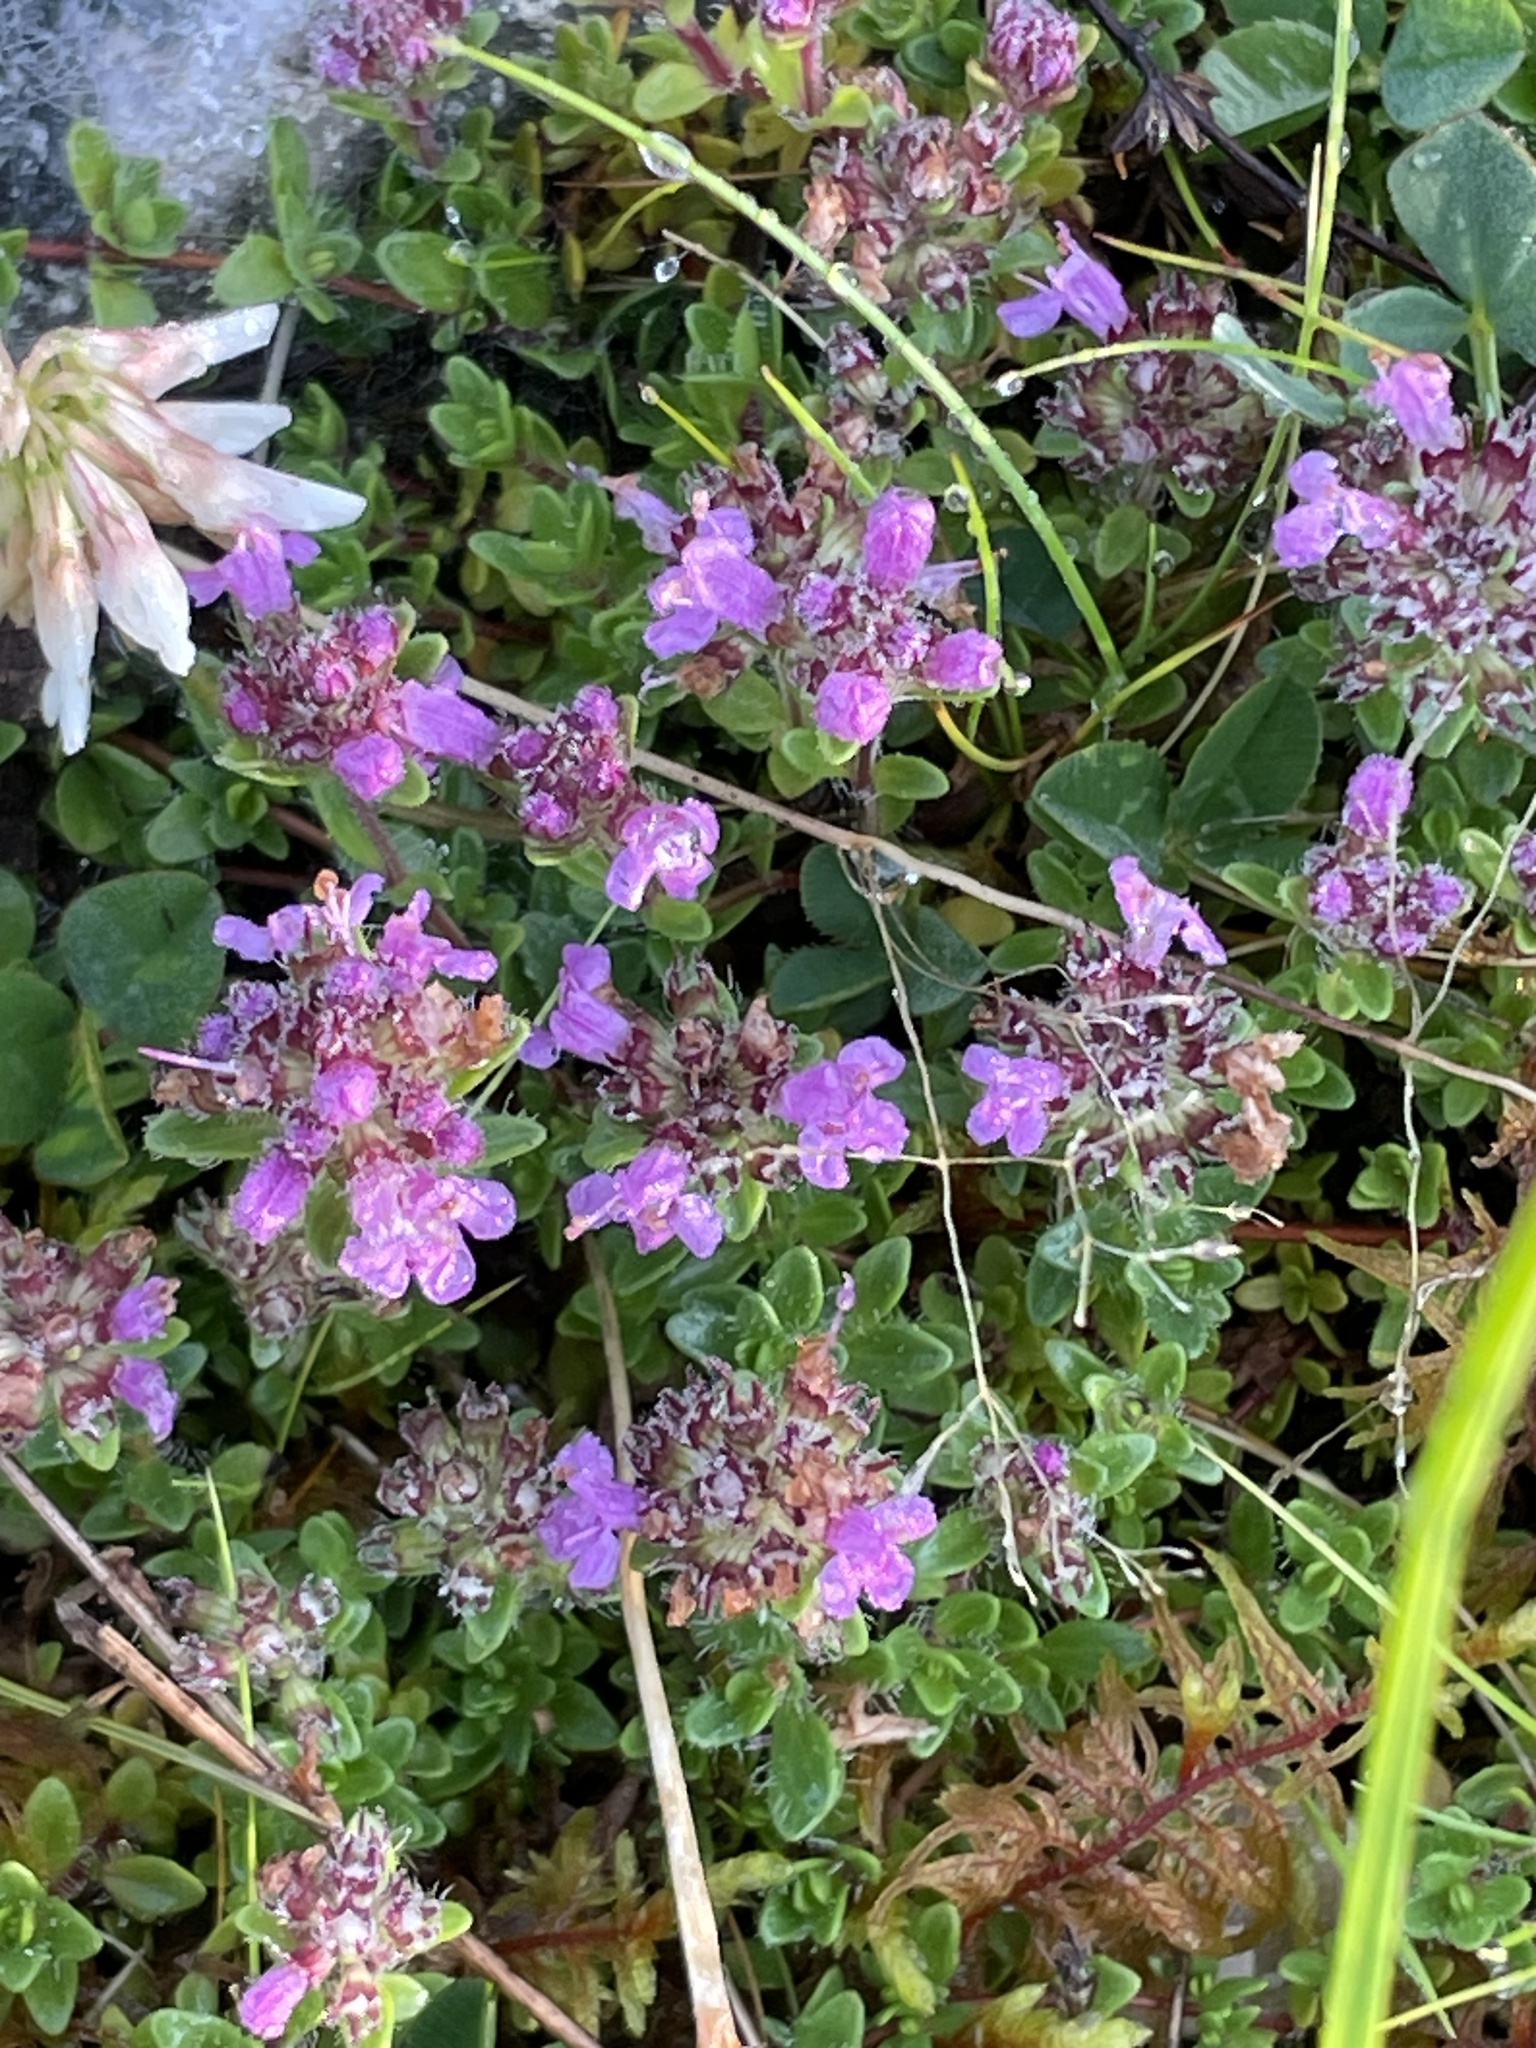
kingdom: Plantae
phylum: Tracheophyta
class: Magnoliopsida
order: Lamiales
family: Lamiaceae
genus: Thymus
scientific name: Thymus praecox
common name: Wild thyme
